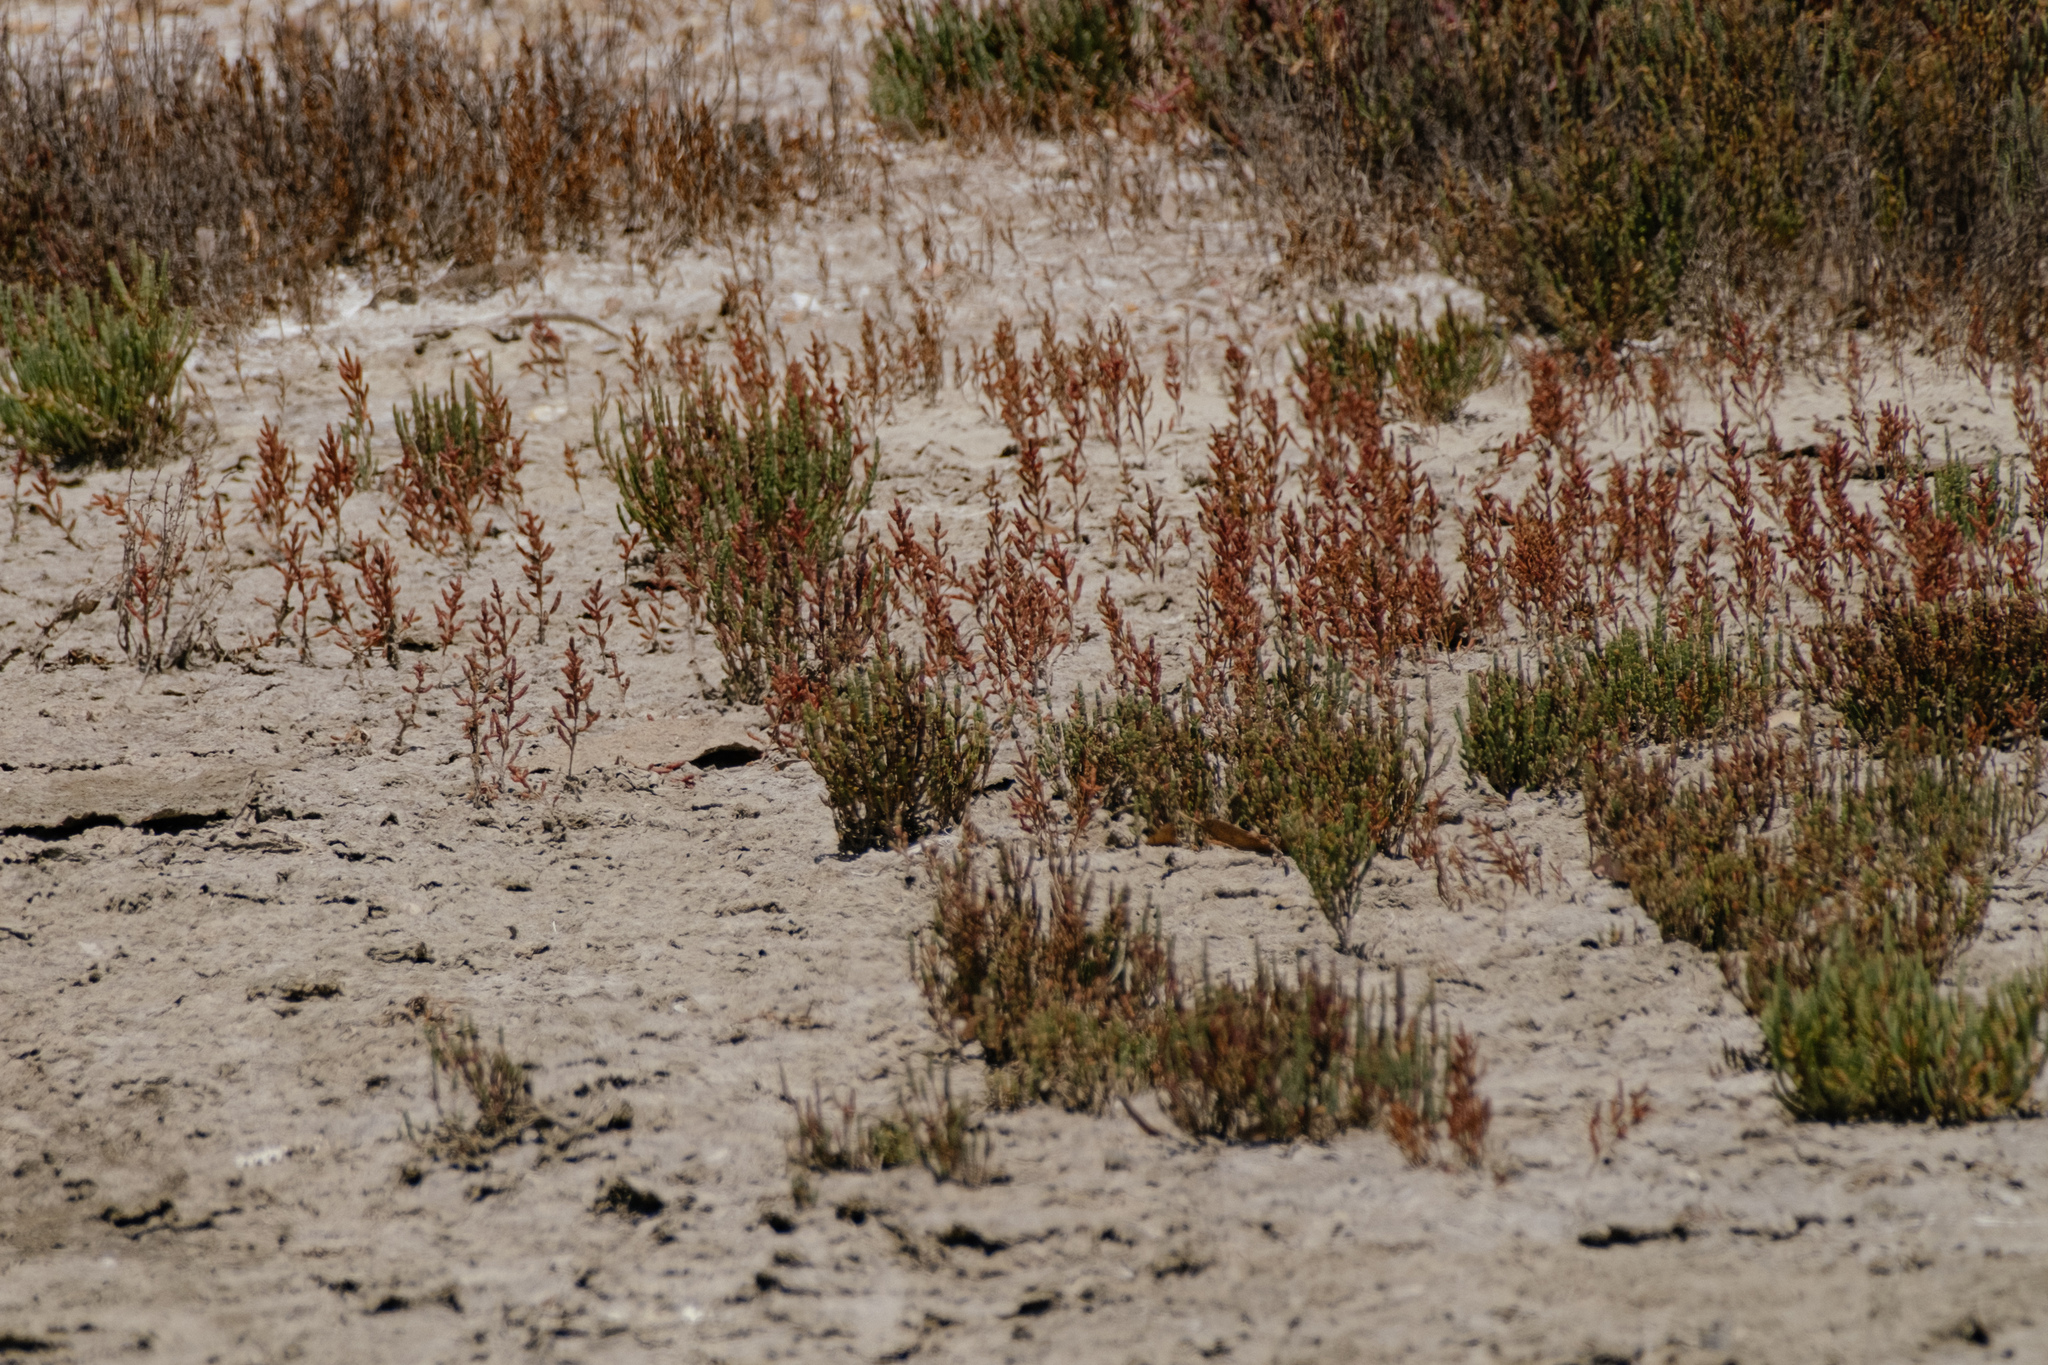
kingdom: Plantae
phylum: Tracheophyta
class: Magnoliopsida
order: Caryophyllales
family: Polygonaceae
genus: Rumex
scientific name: Rumex bucephalophorus
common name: Red dock
